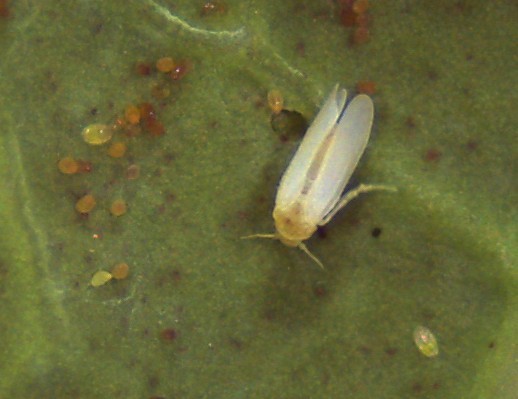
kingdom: Animalia
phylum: Arthropoda
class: Insecta
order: Hemiptera
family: Aleyrodidae
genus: Bemisia
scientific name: Bemisia tabaci
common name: Sweetpotato whitefly
